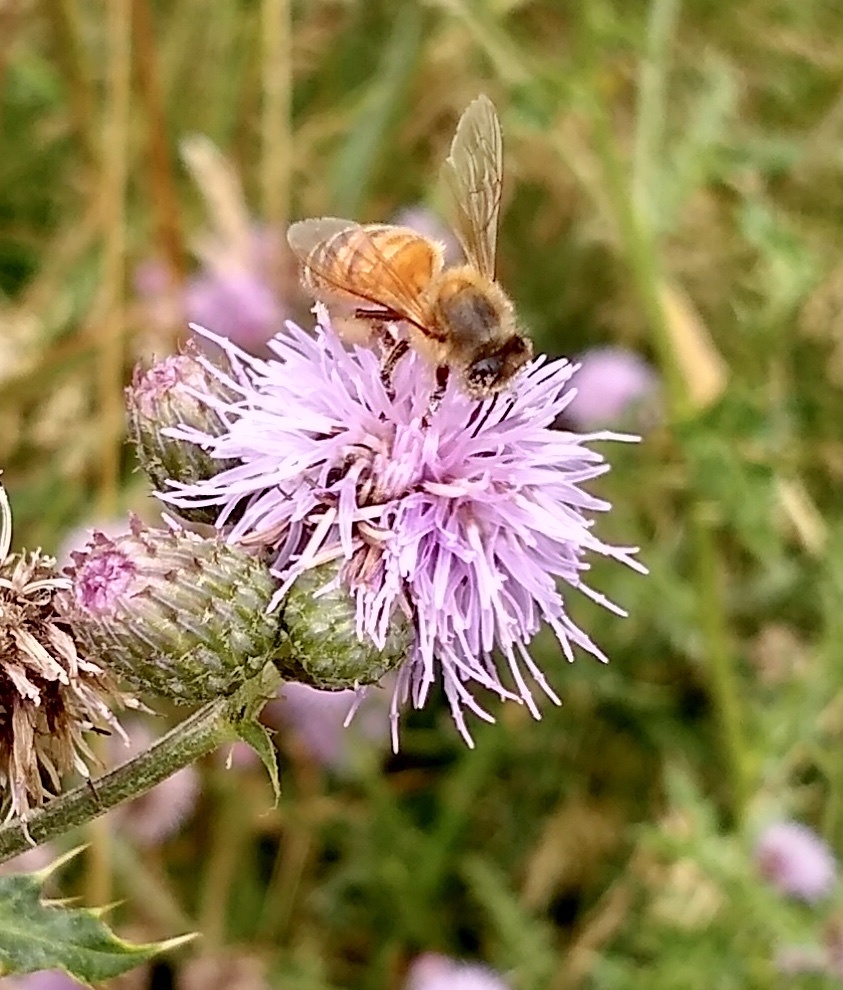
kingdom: Animalia
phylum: Arthropoda
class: Insecta
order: Hymenoptera
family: Apidae
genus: Apis
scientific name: Apis mellifera
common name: Honey bee
